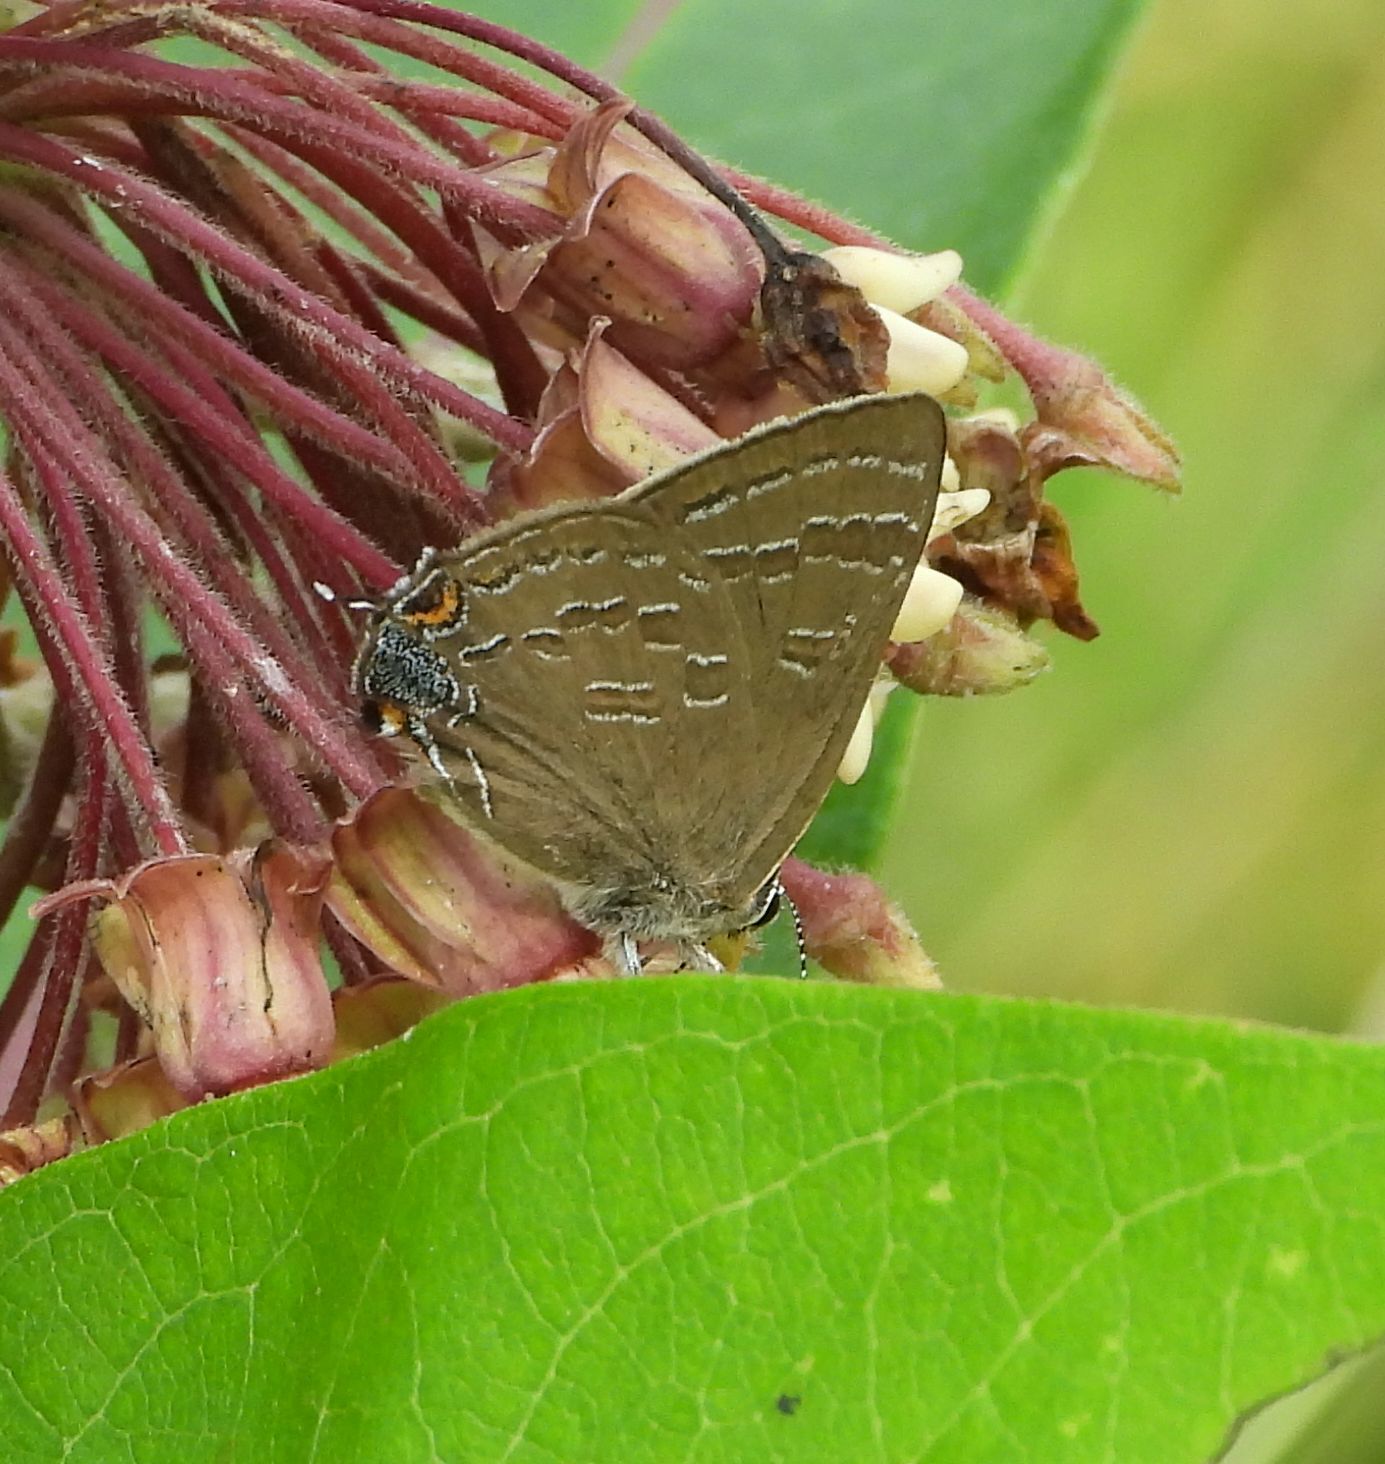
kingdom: Animalia
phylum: Arthropoda
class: Insecta
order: Lepidoptera
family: Lycaenidae
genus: Strymon
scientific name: Strymon caryaevorus
